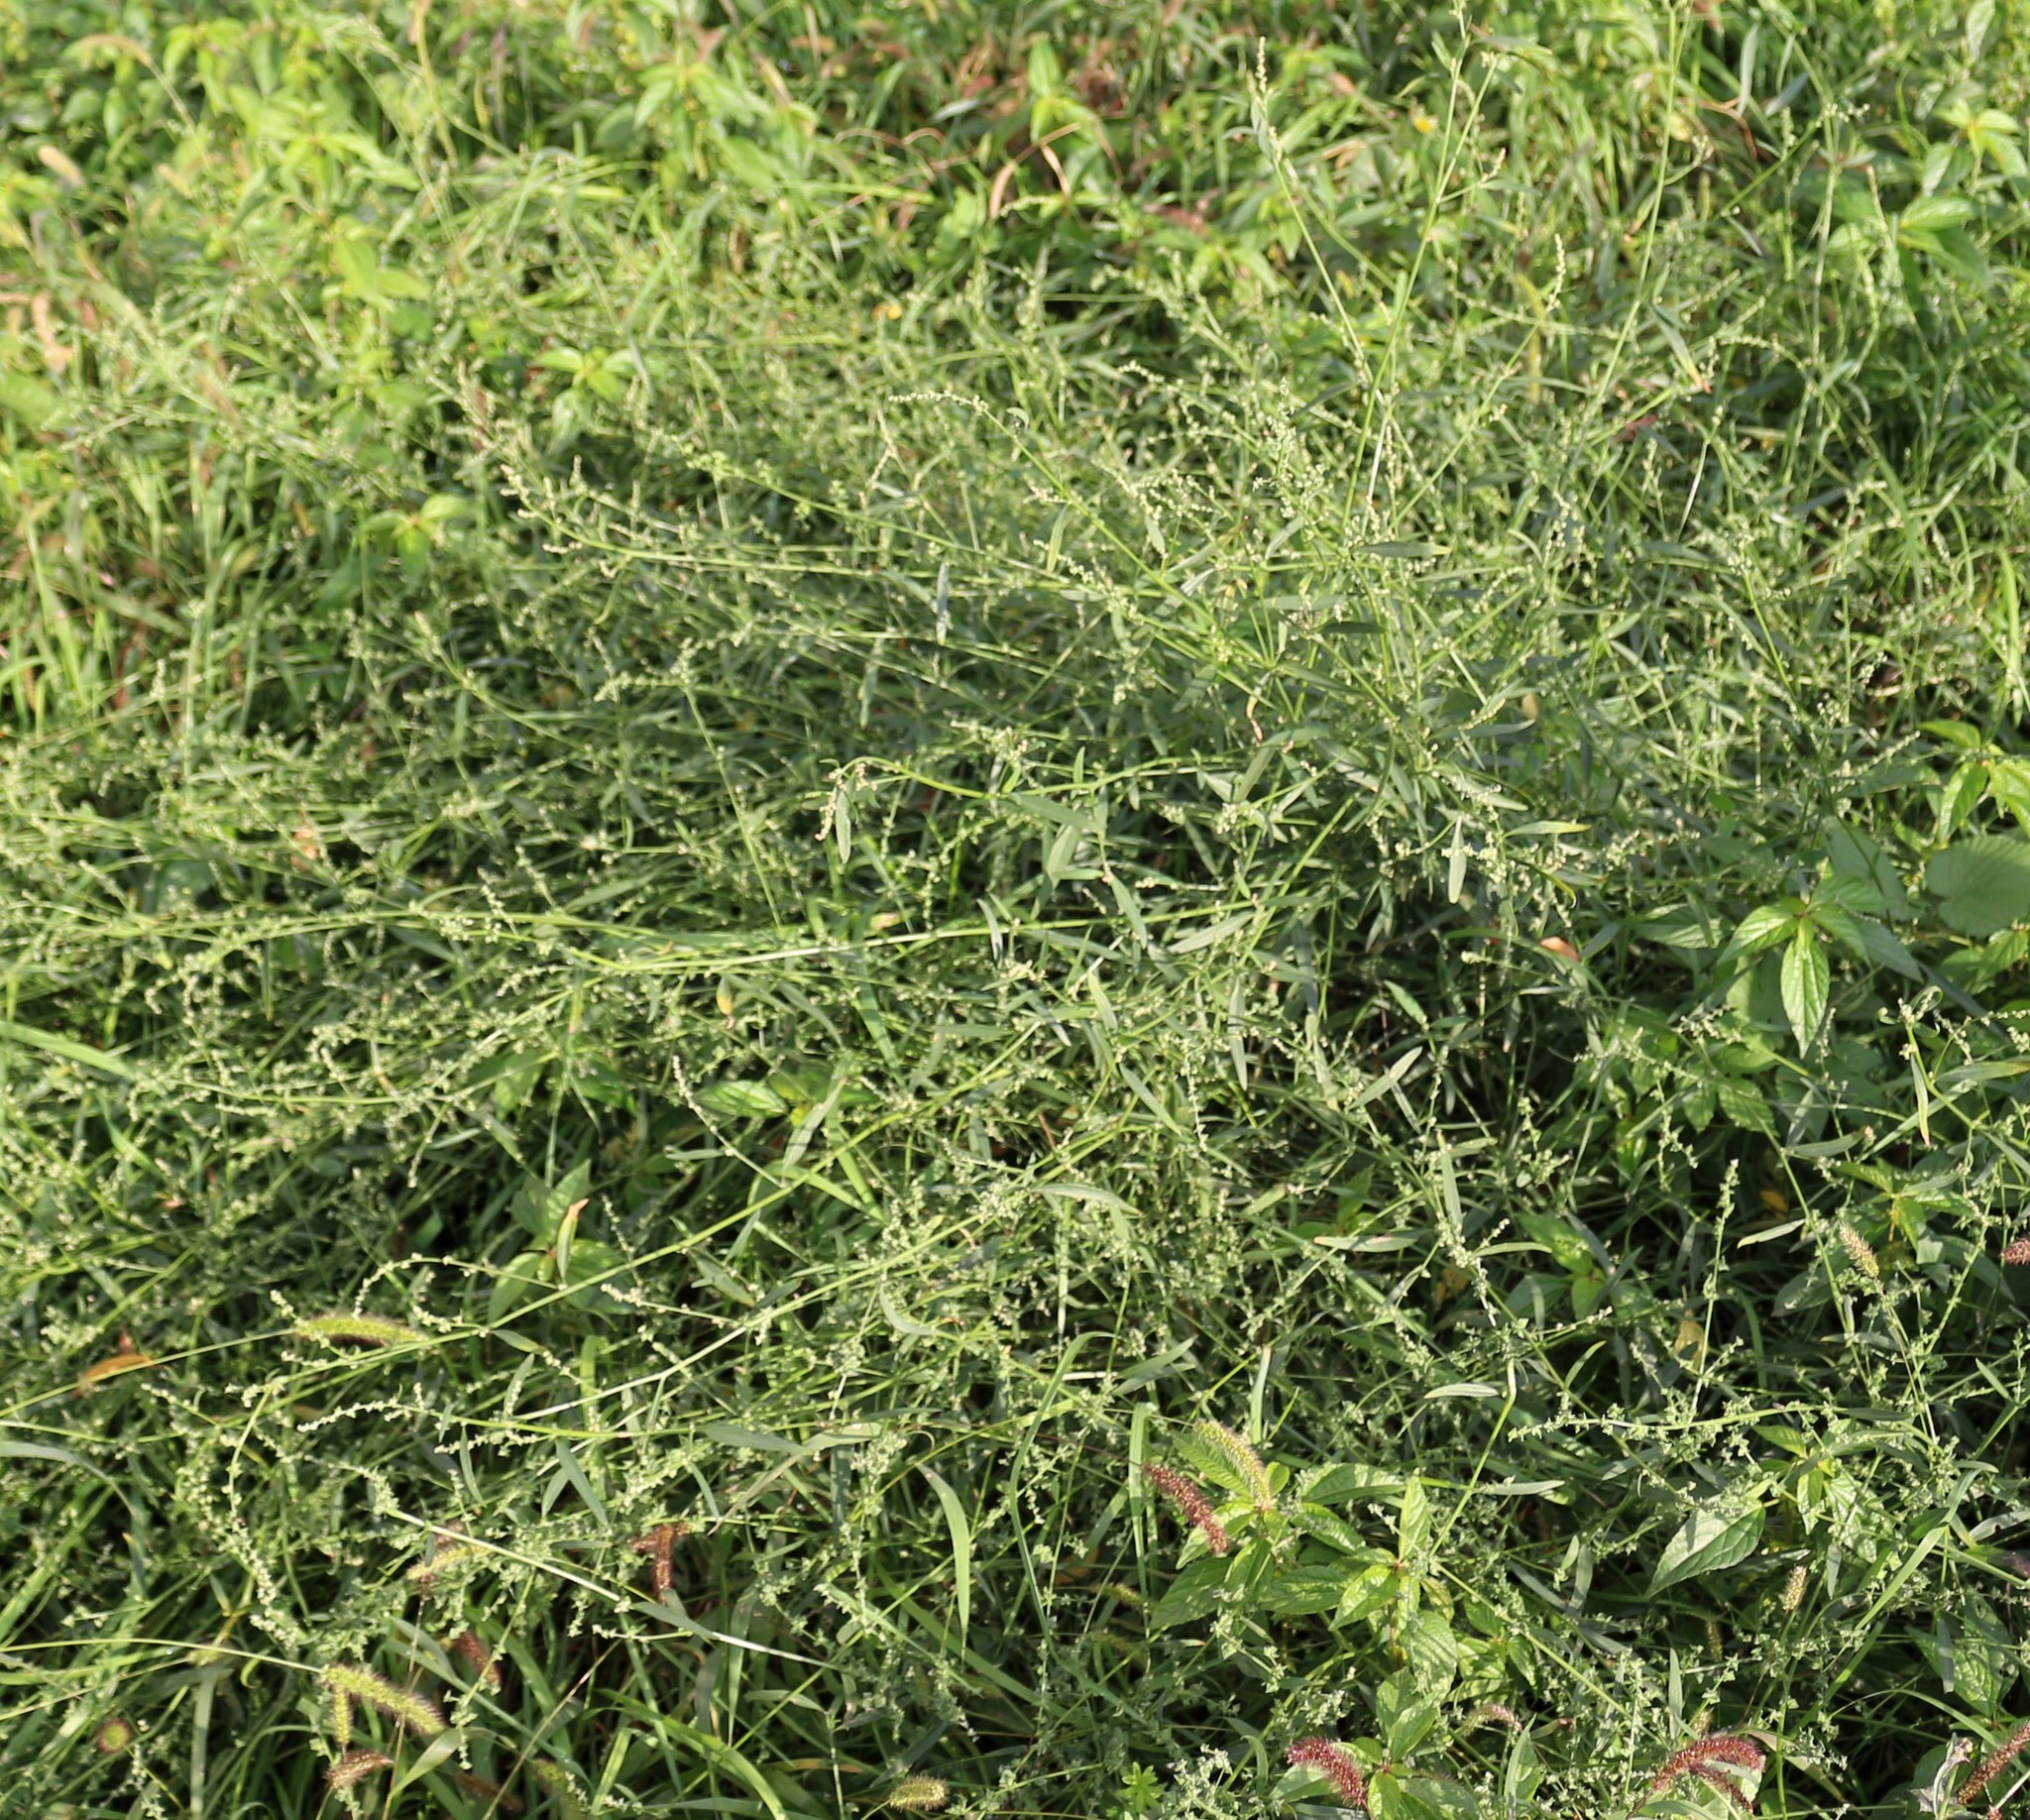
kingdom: Plantae
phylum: Tracheophyta
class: Magnoliopsida
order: Caryophyllales
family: Amaranthaceae
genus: Atriplex
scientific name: Atriplex patula
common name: Common orache
